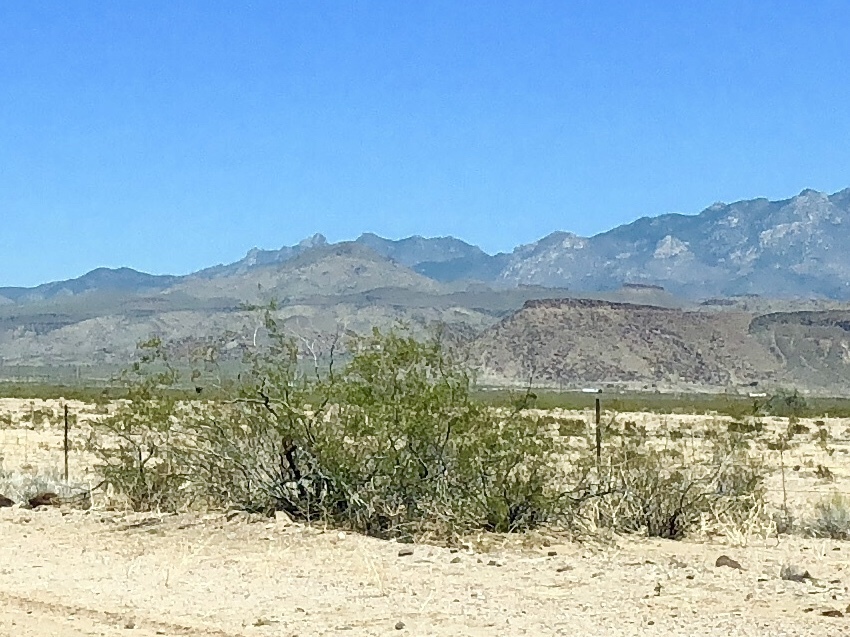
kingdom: Plantae
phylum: Tracheophyta
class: Magnoliopsida
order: Zygophyllales
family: Zygophyllaceae
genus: Larrea
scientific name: Larrea tridentata
